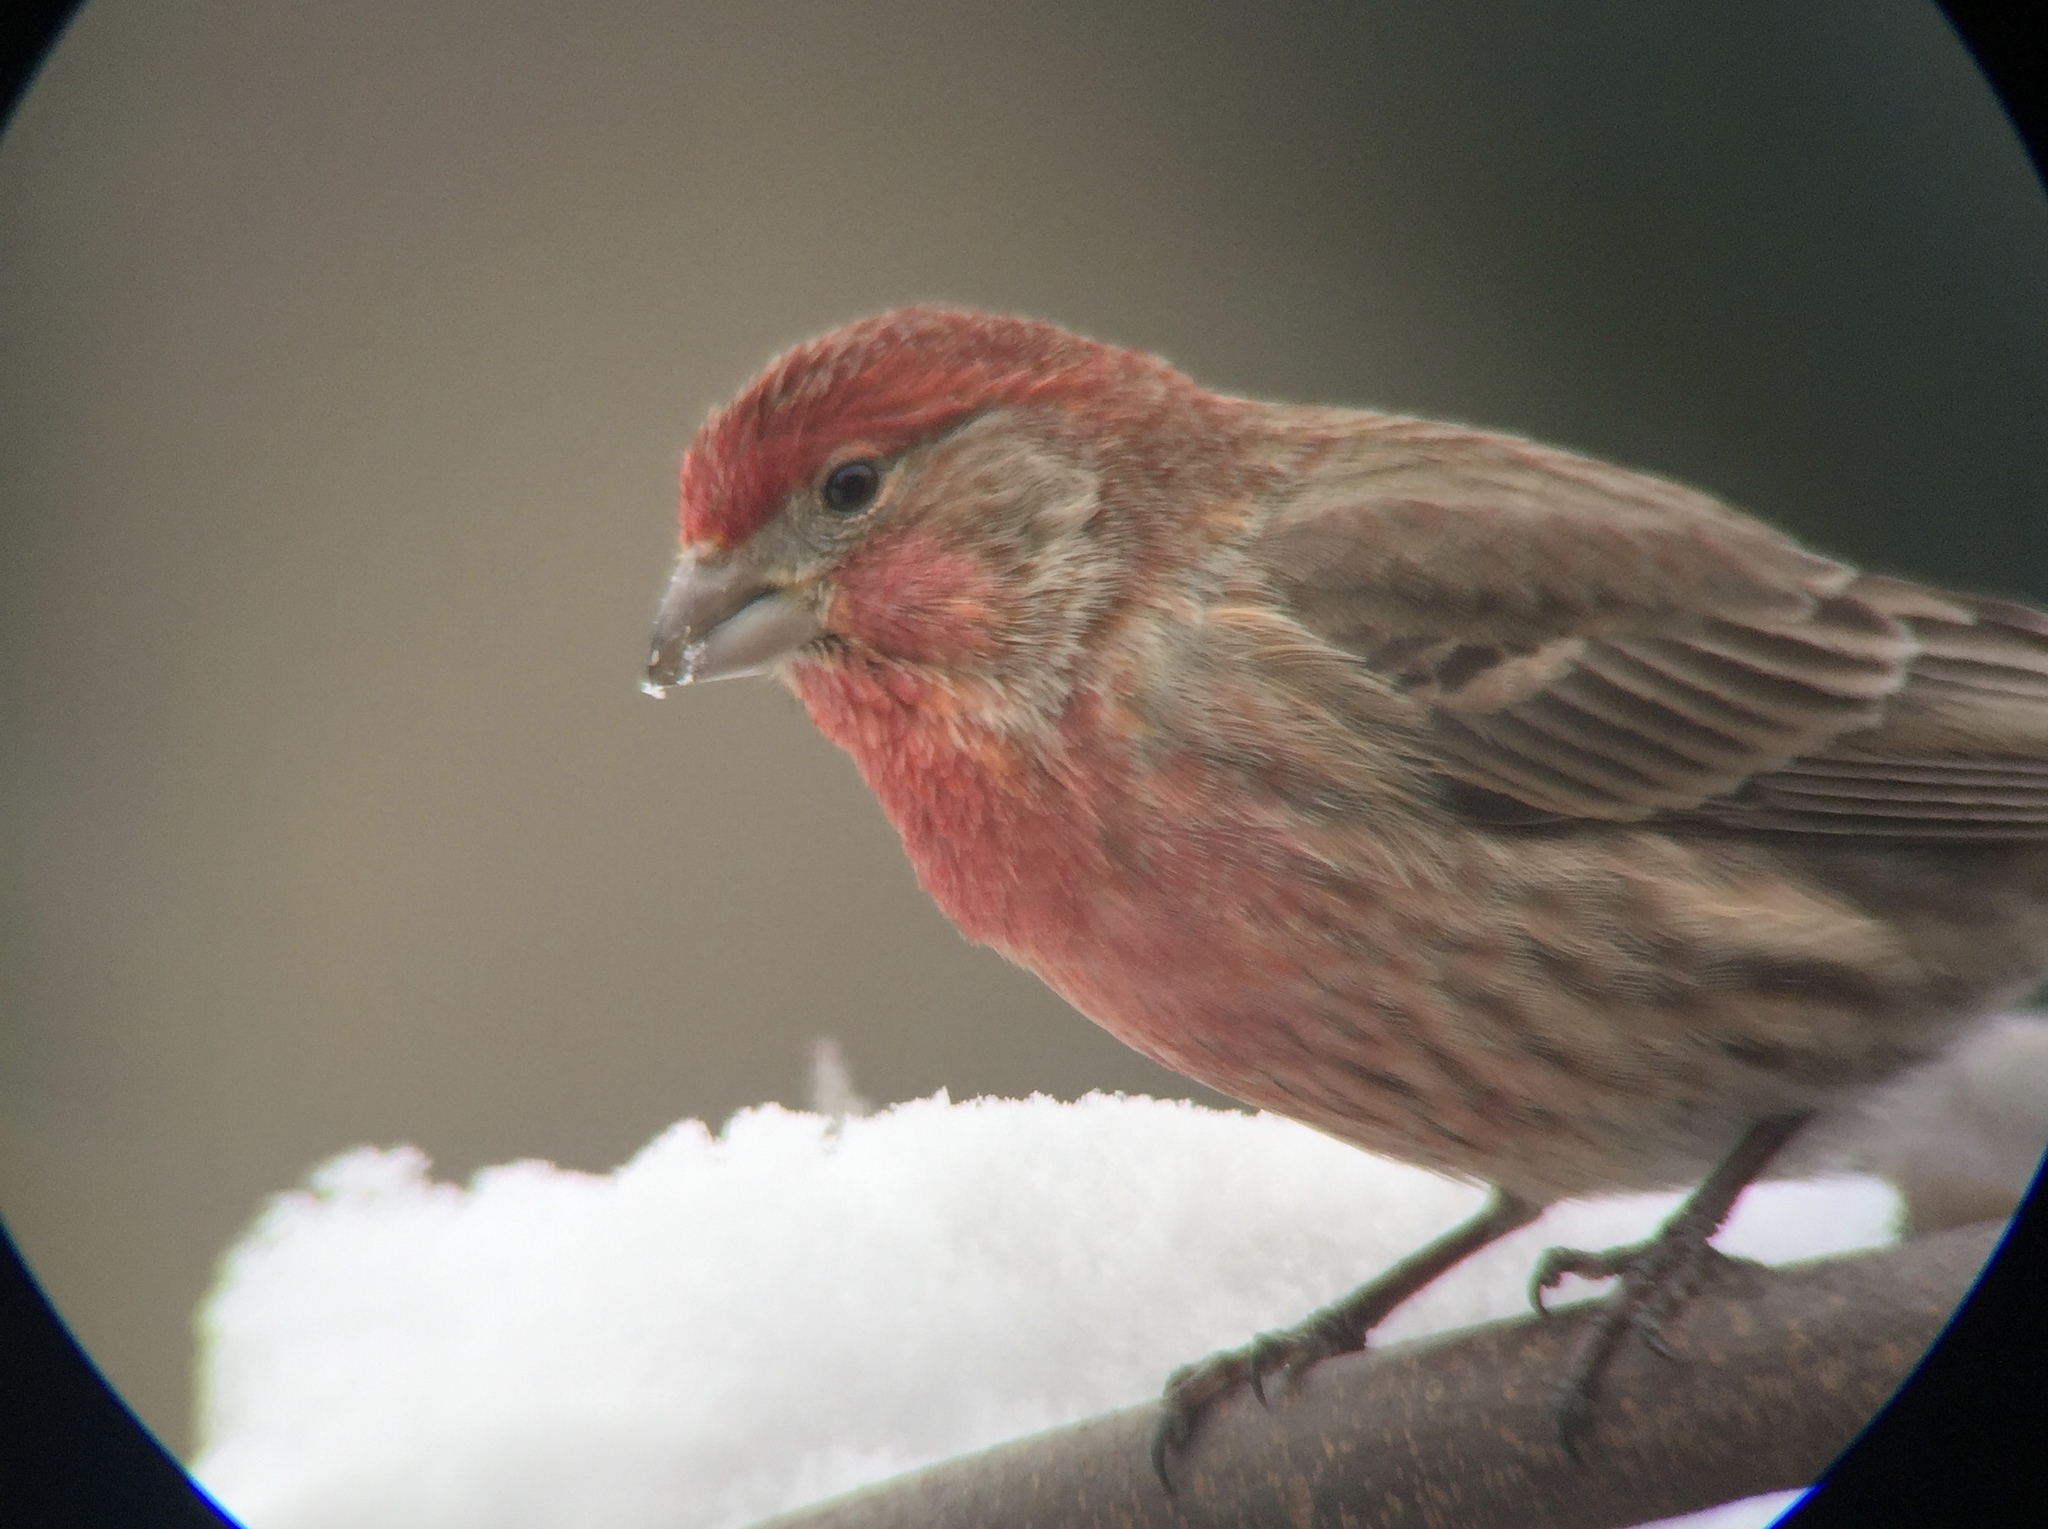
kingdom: Animalia
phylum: Chordata
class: Aves
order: Passeriformes
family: Fringillidae
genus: Haemorhous
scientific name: Haemorhous mexicanus
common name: House finch
